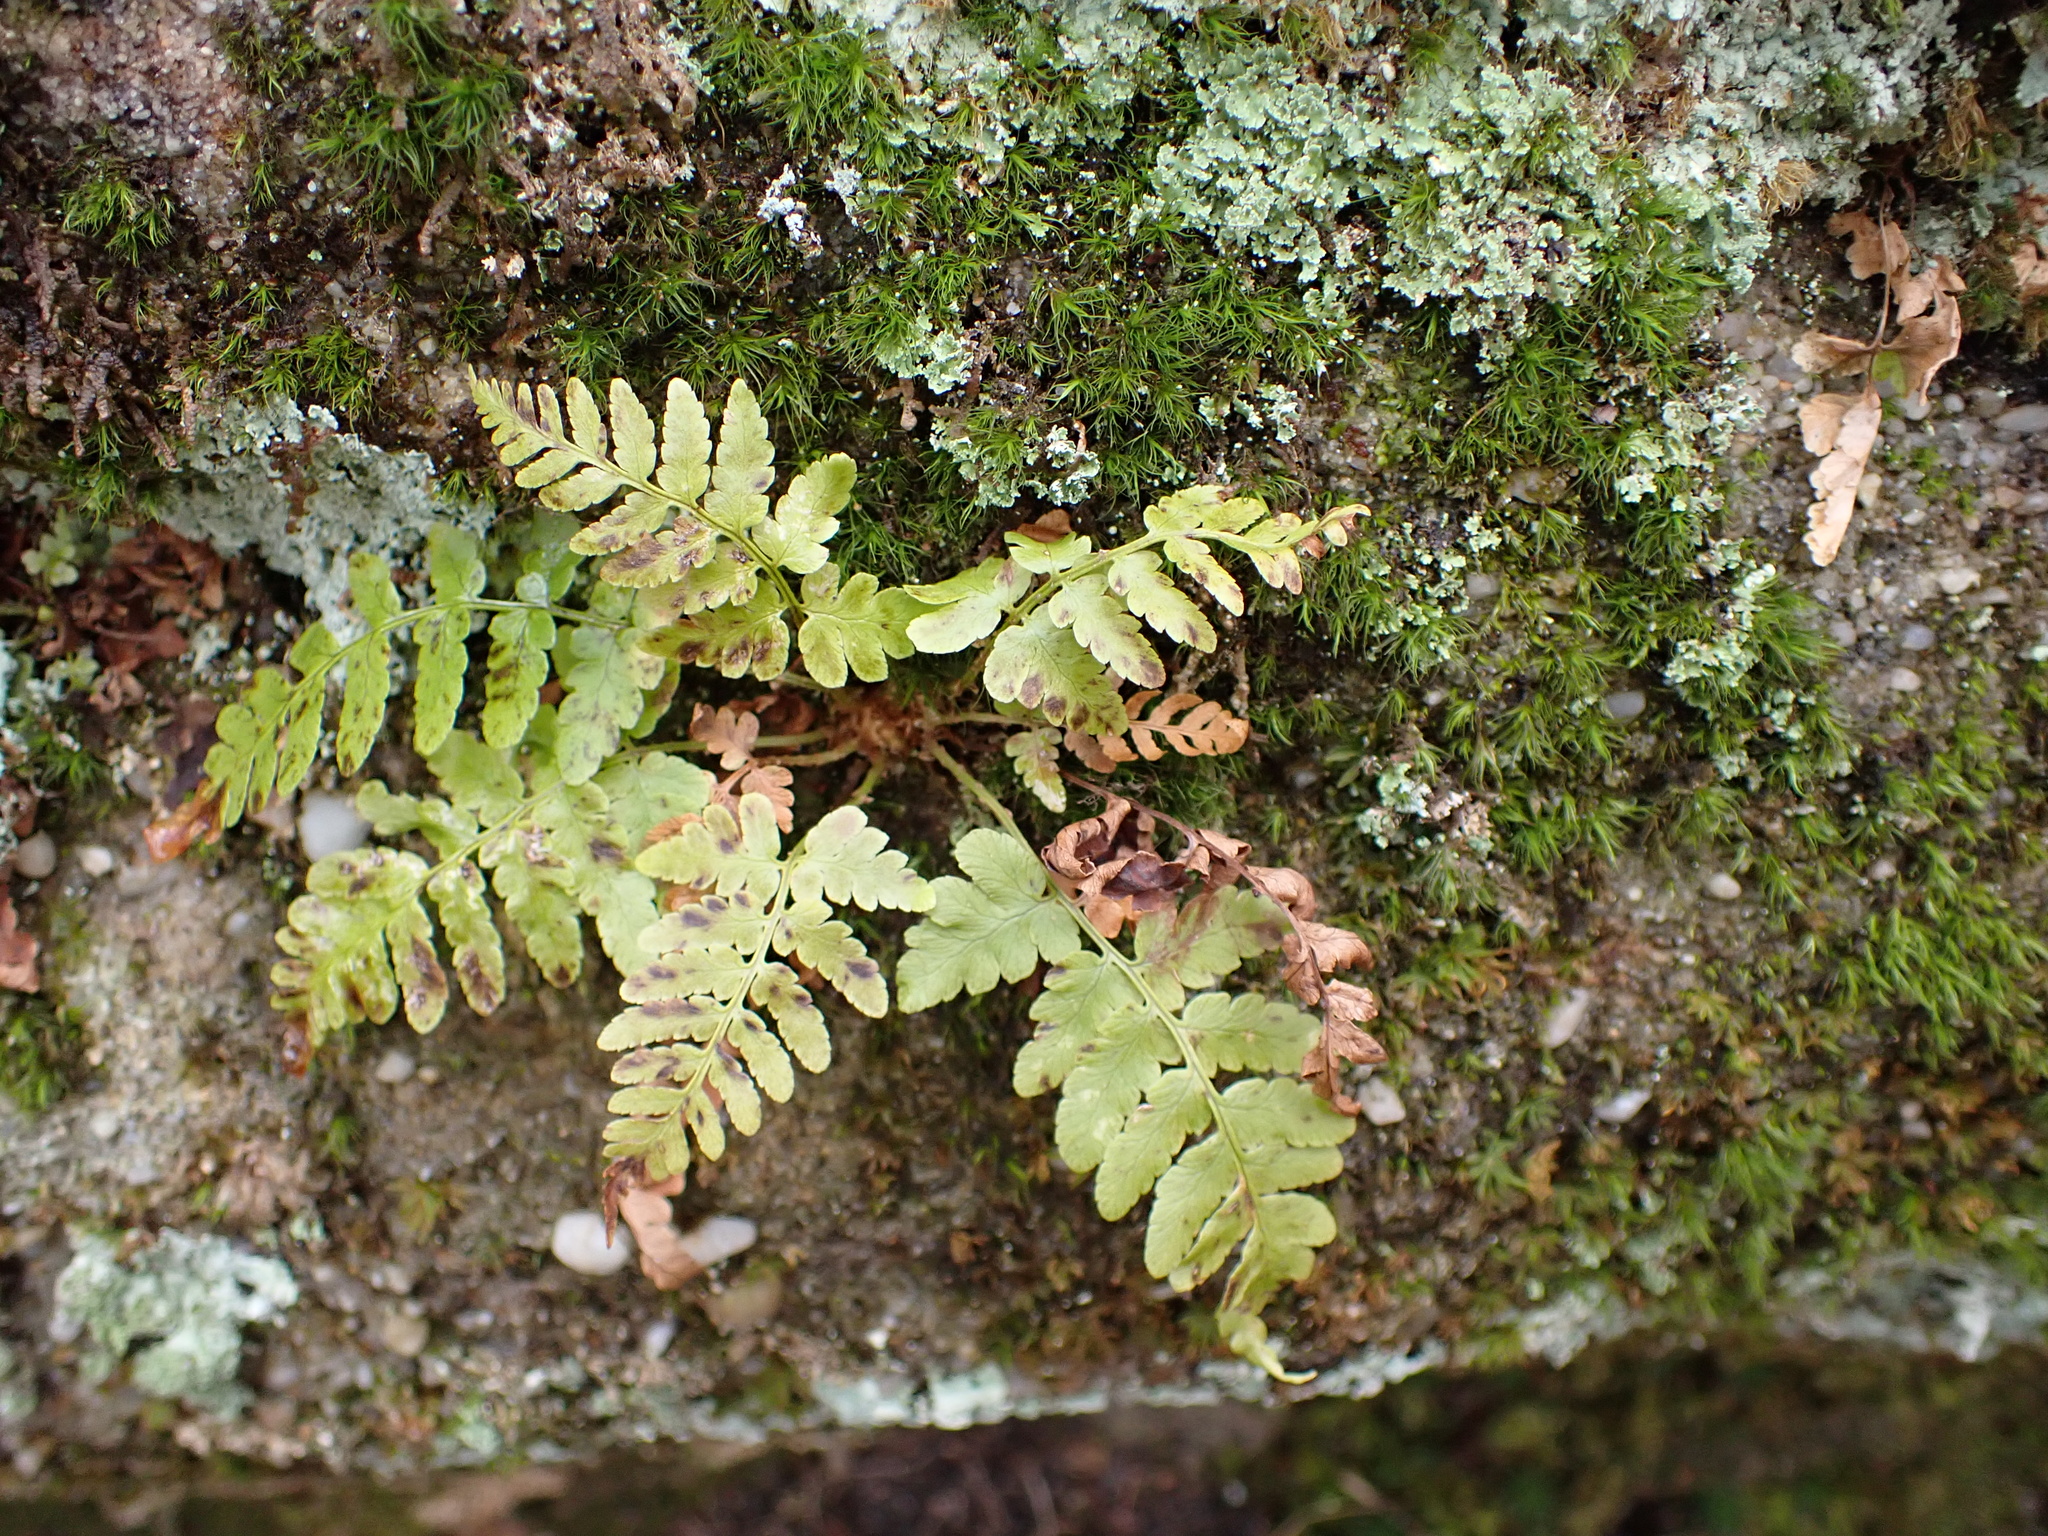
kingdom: Plantae
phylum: Tracheophyta
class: Polypodiopsida
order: Polypodiales
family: Dryopteridaceae
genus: Dryopteris
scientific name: Dryopteris marginalis
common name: Marginal wood fern
